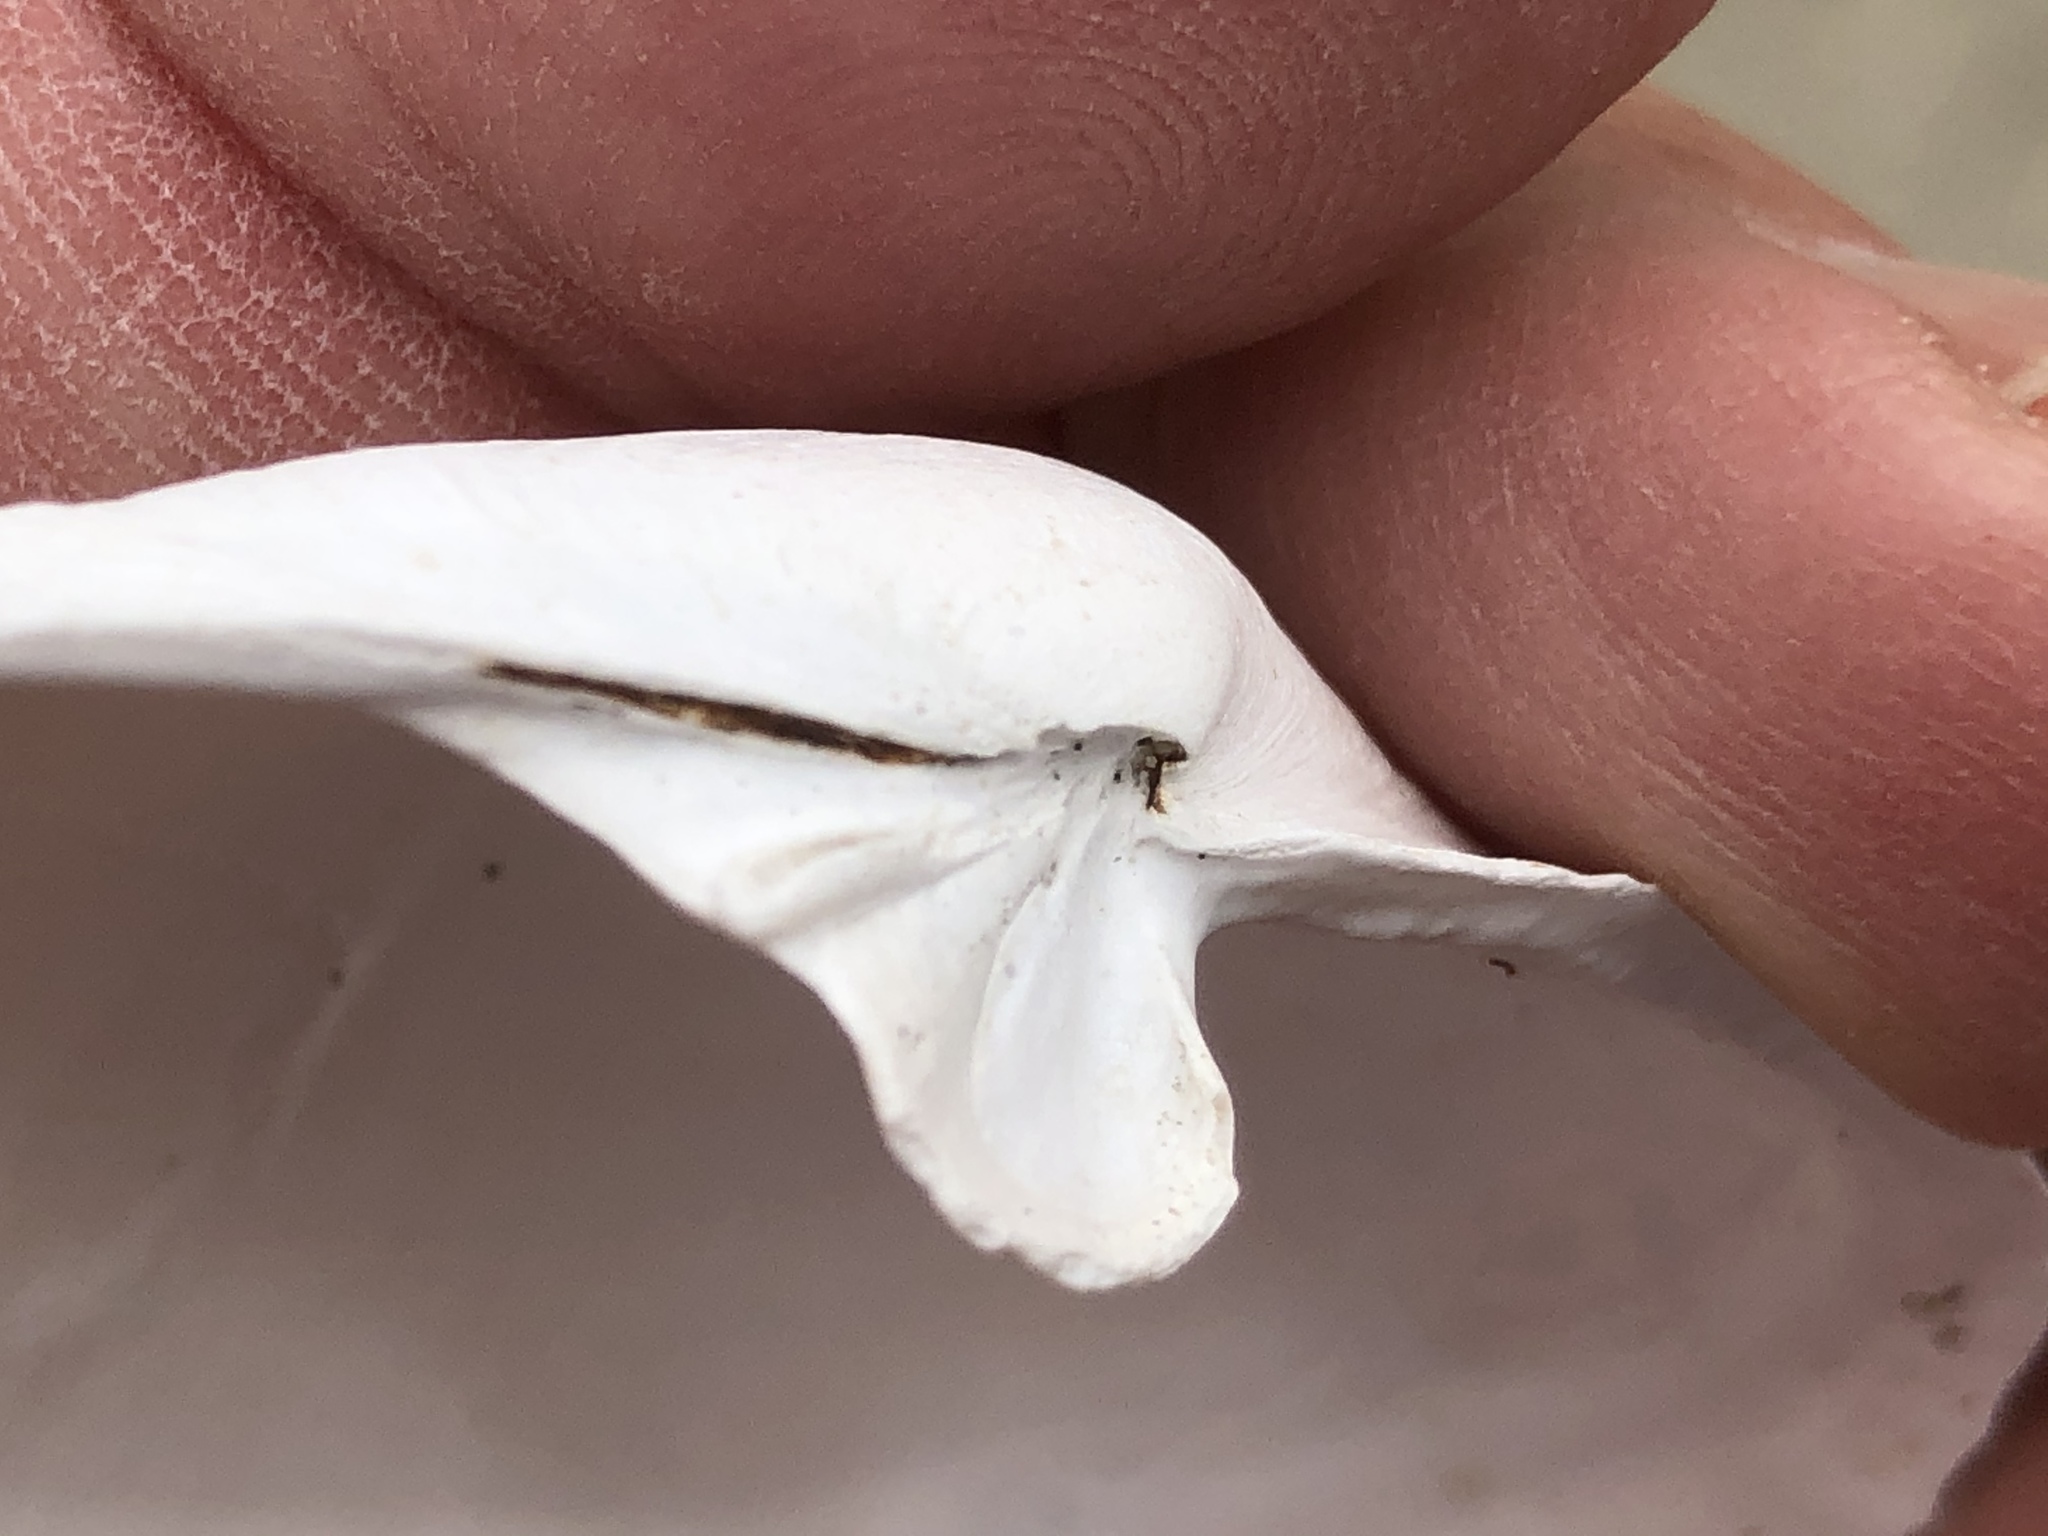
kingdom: Animalia
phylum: Mollusca
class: Bivalvia
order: Myida
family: Myidae
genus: Mya
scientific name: Mya arenaria
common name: Soft-shelled clam
